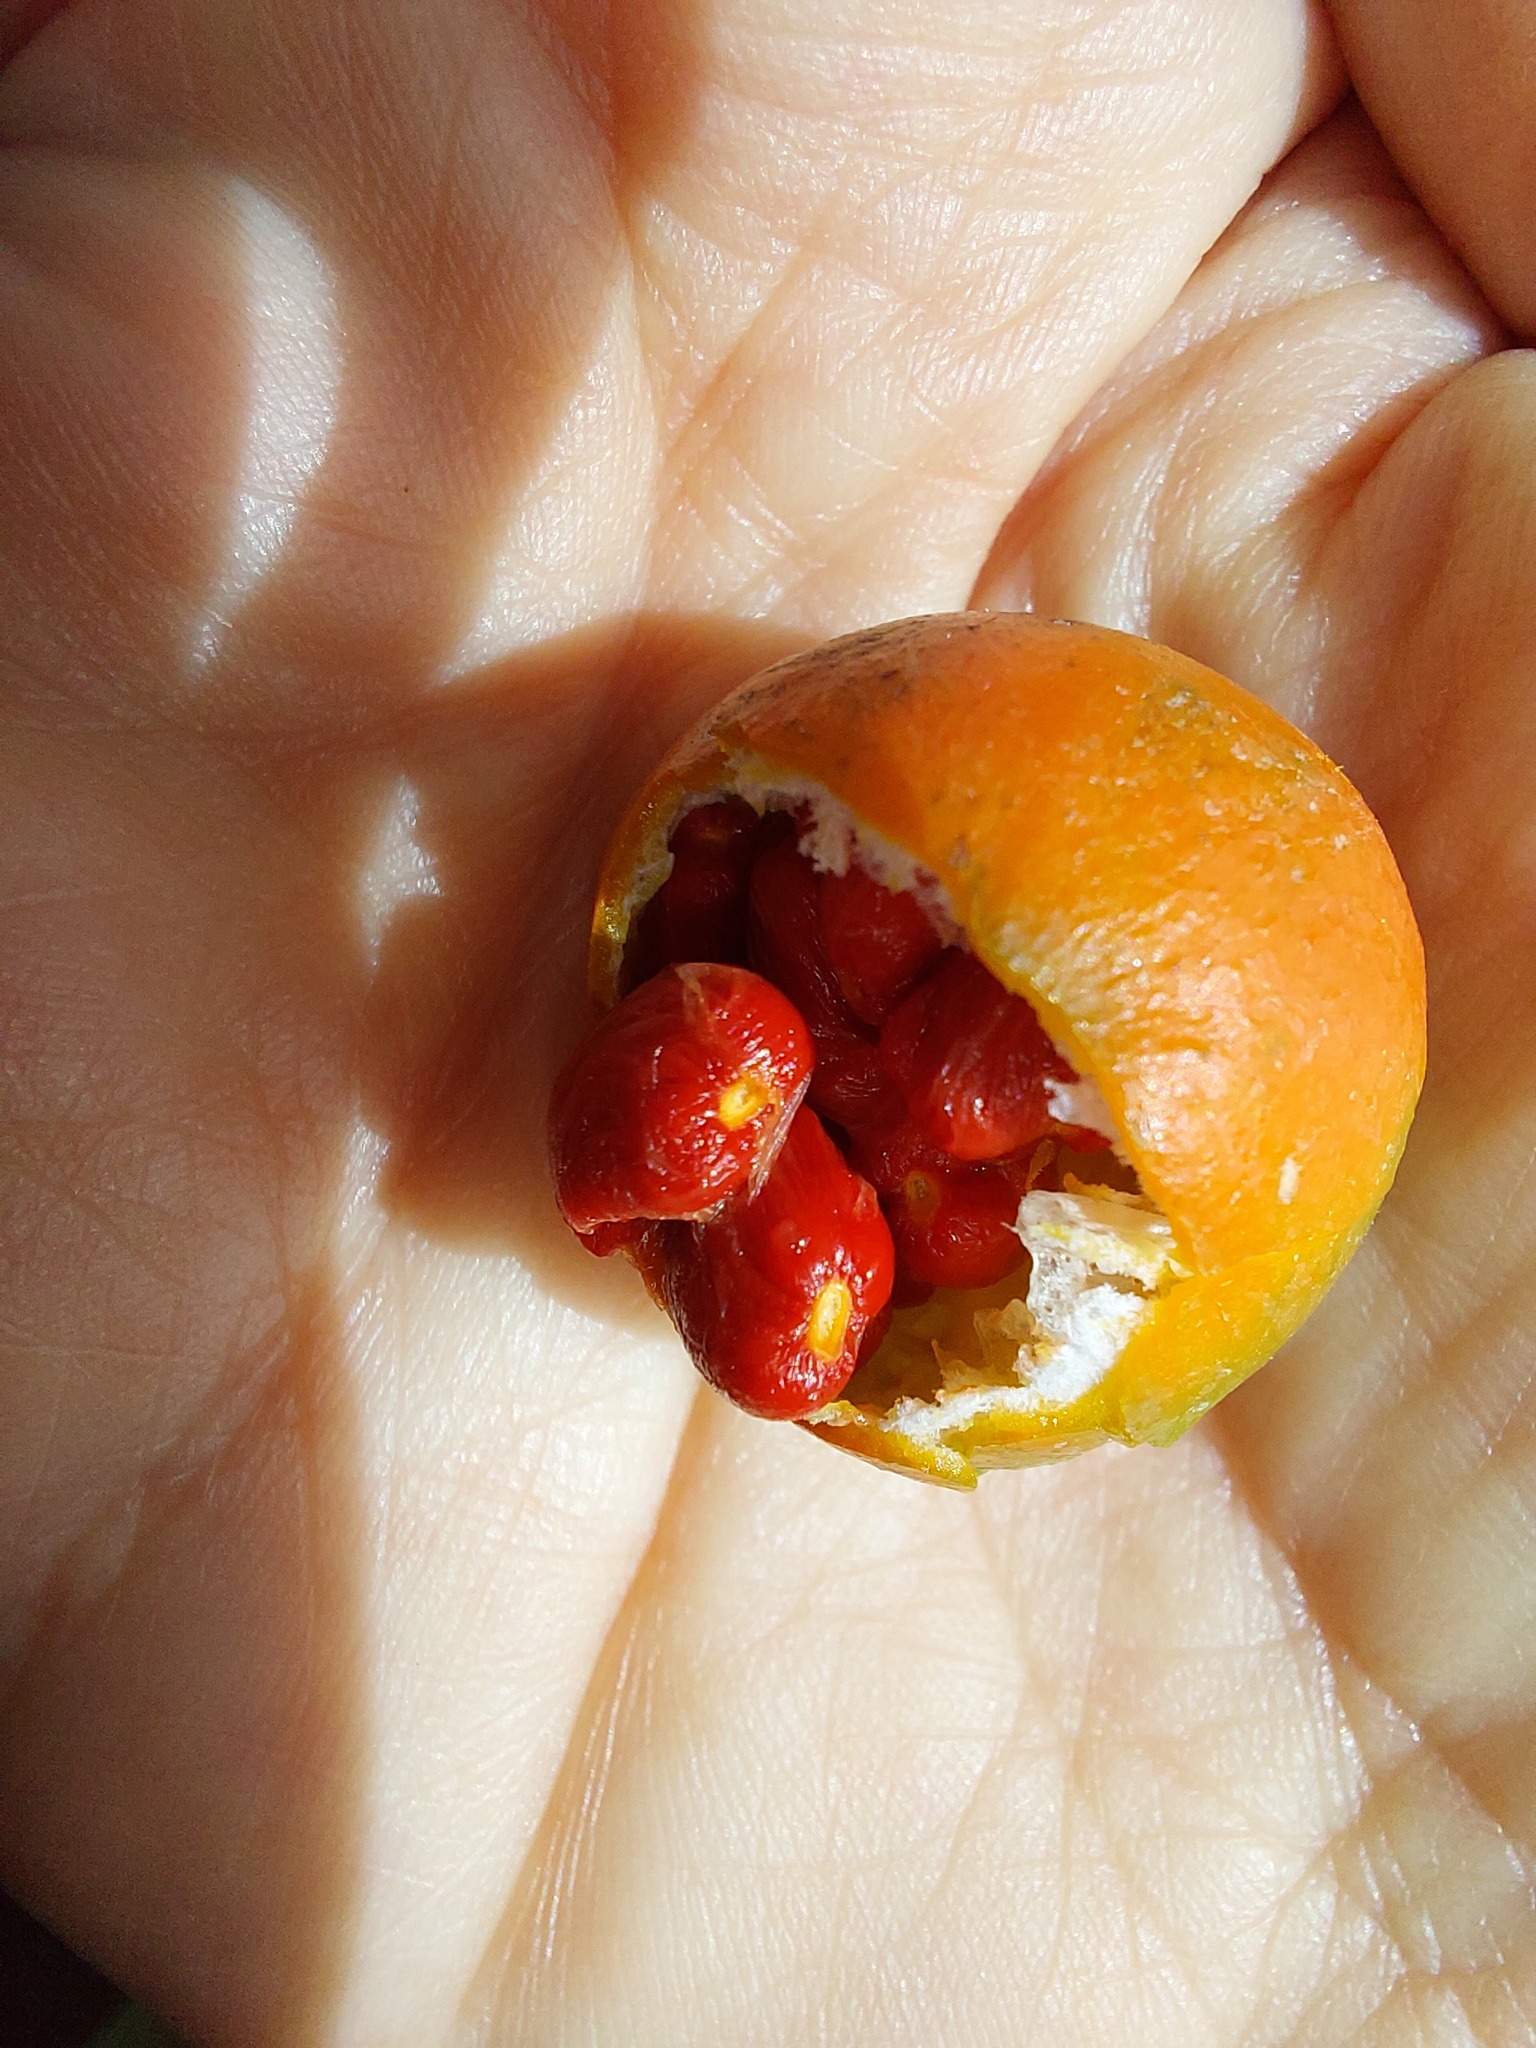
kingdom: Plantae
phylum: Tracheophyta
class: Magnoliopsida
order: Malpighiales
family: Passifloraceae
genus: Passiflora
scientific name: Passiflora tetrandra
